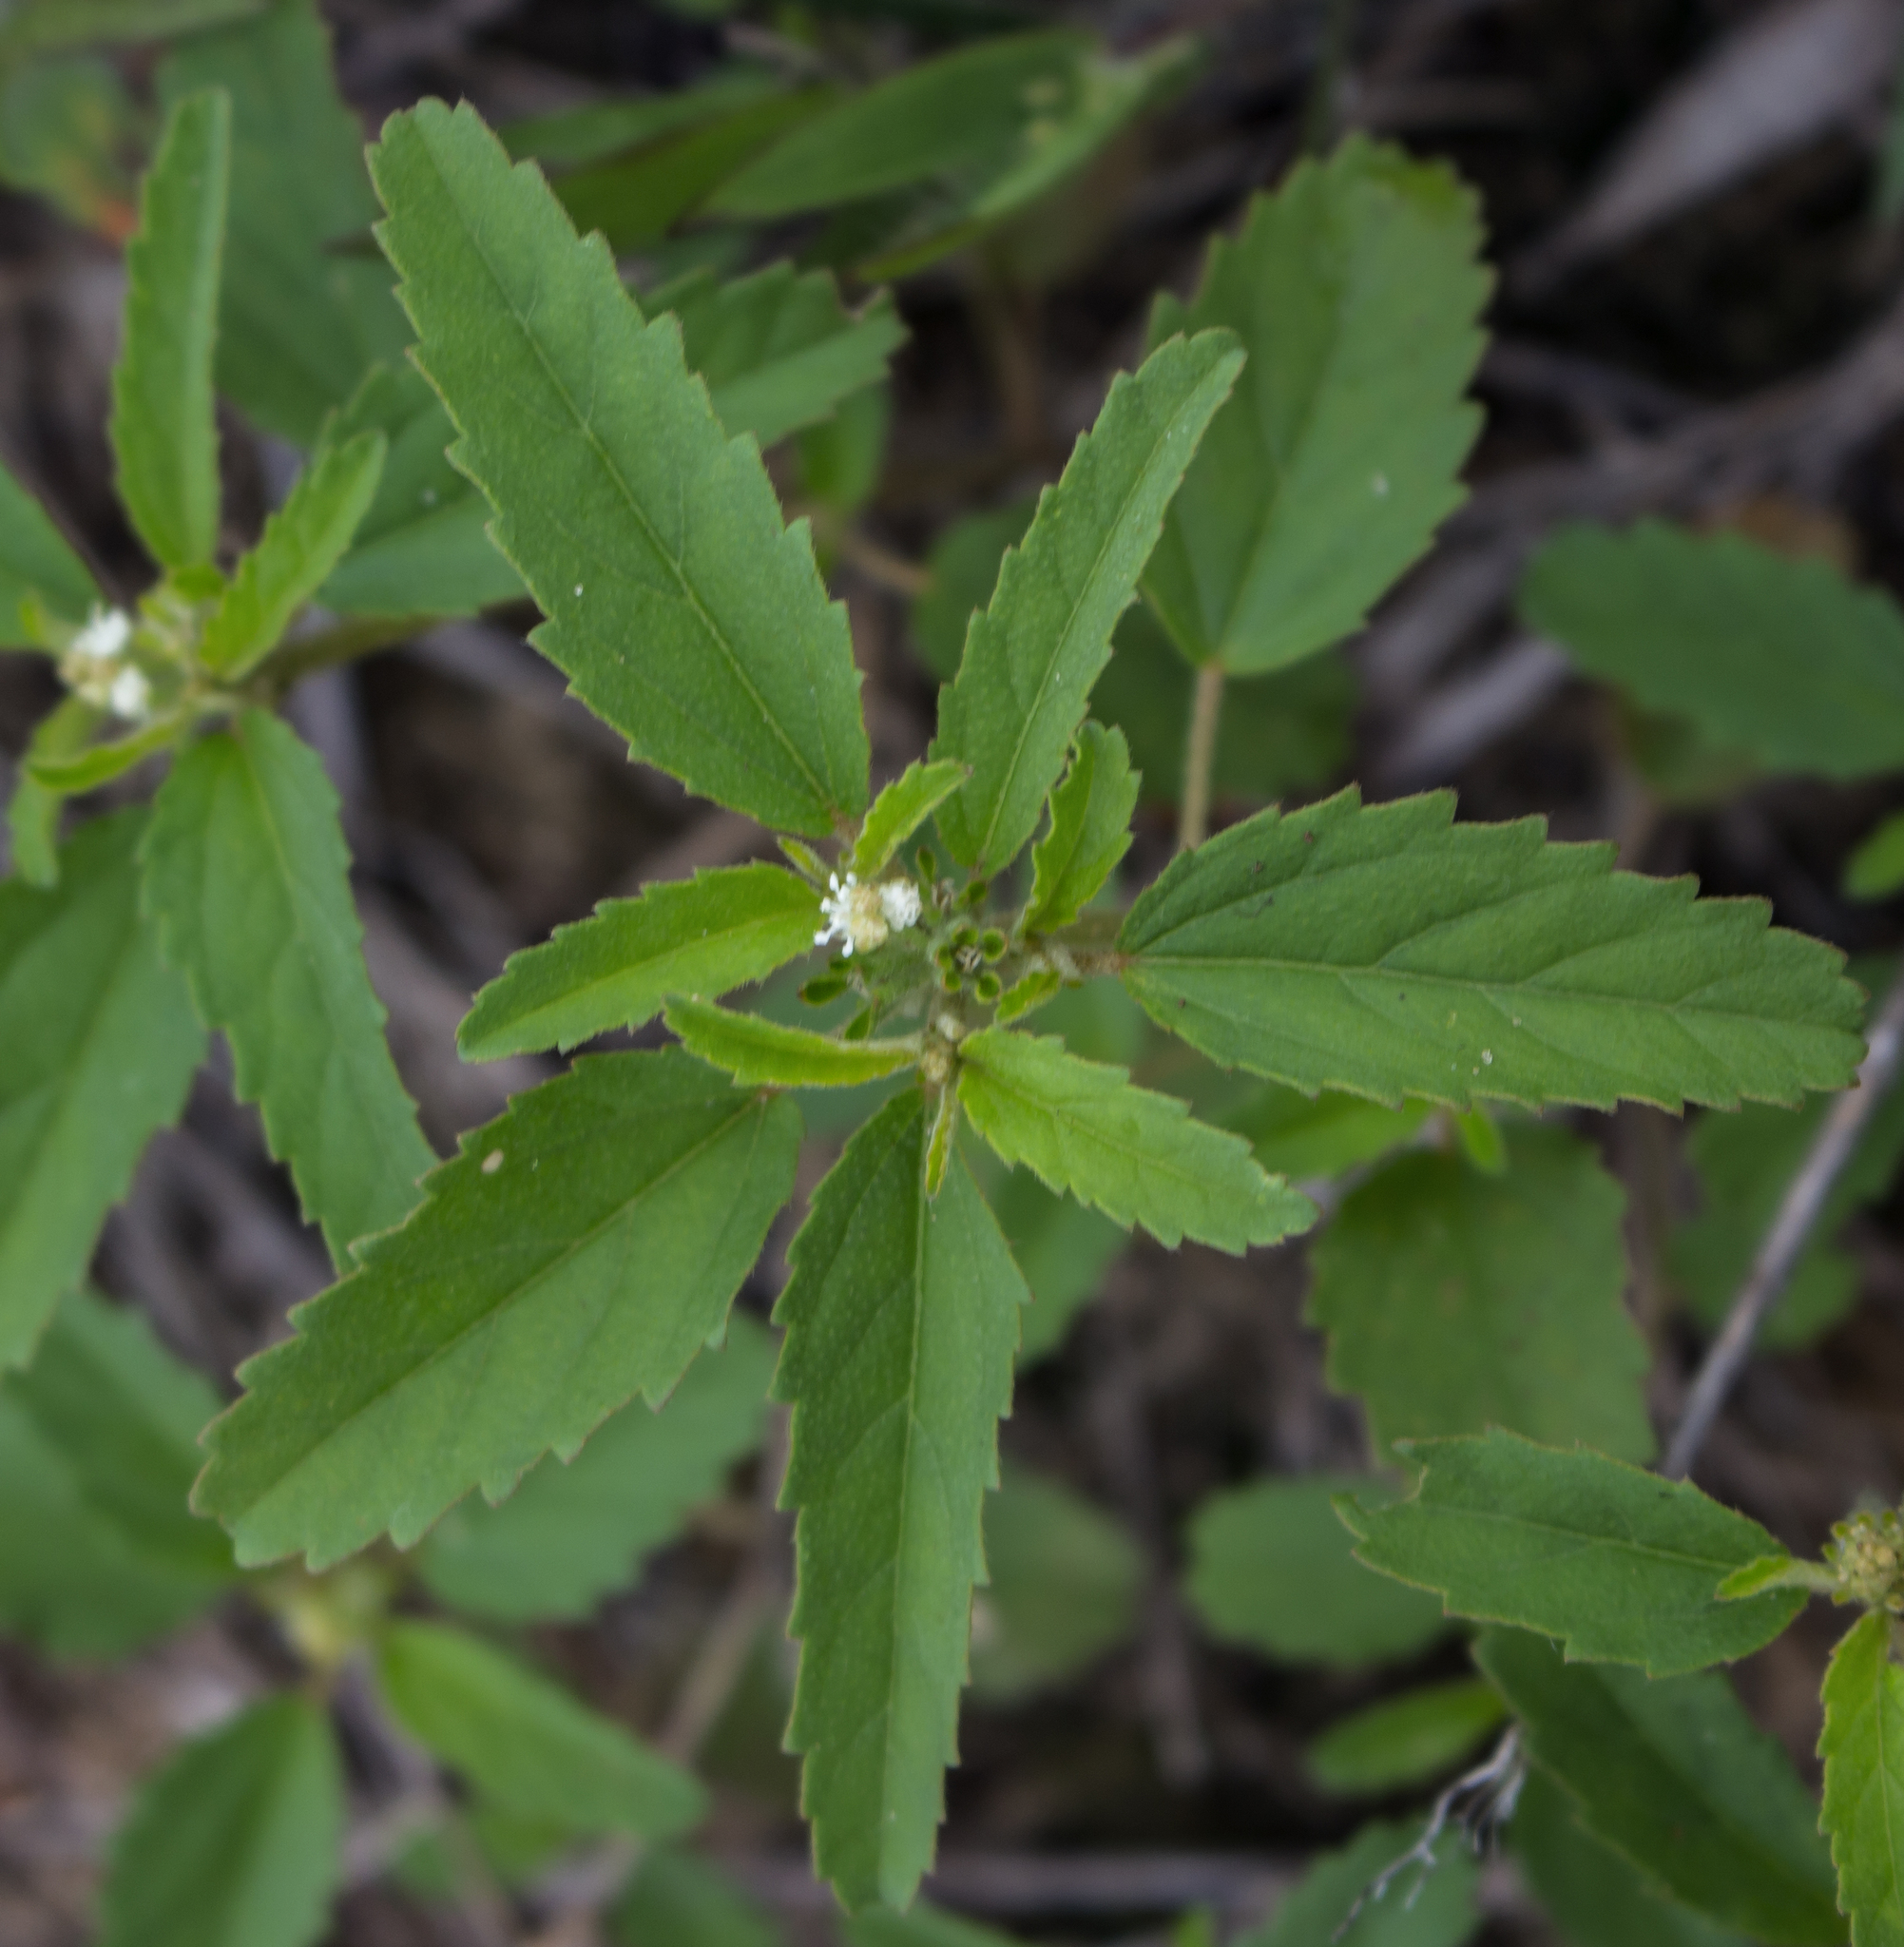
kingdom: Plantae
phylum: Tracheophyta
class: Magnoliopsida
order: Malpighiales
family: Euphorbiaceae
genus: Croton
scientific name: Croton glandulosus
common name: Tropic croton
